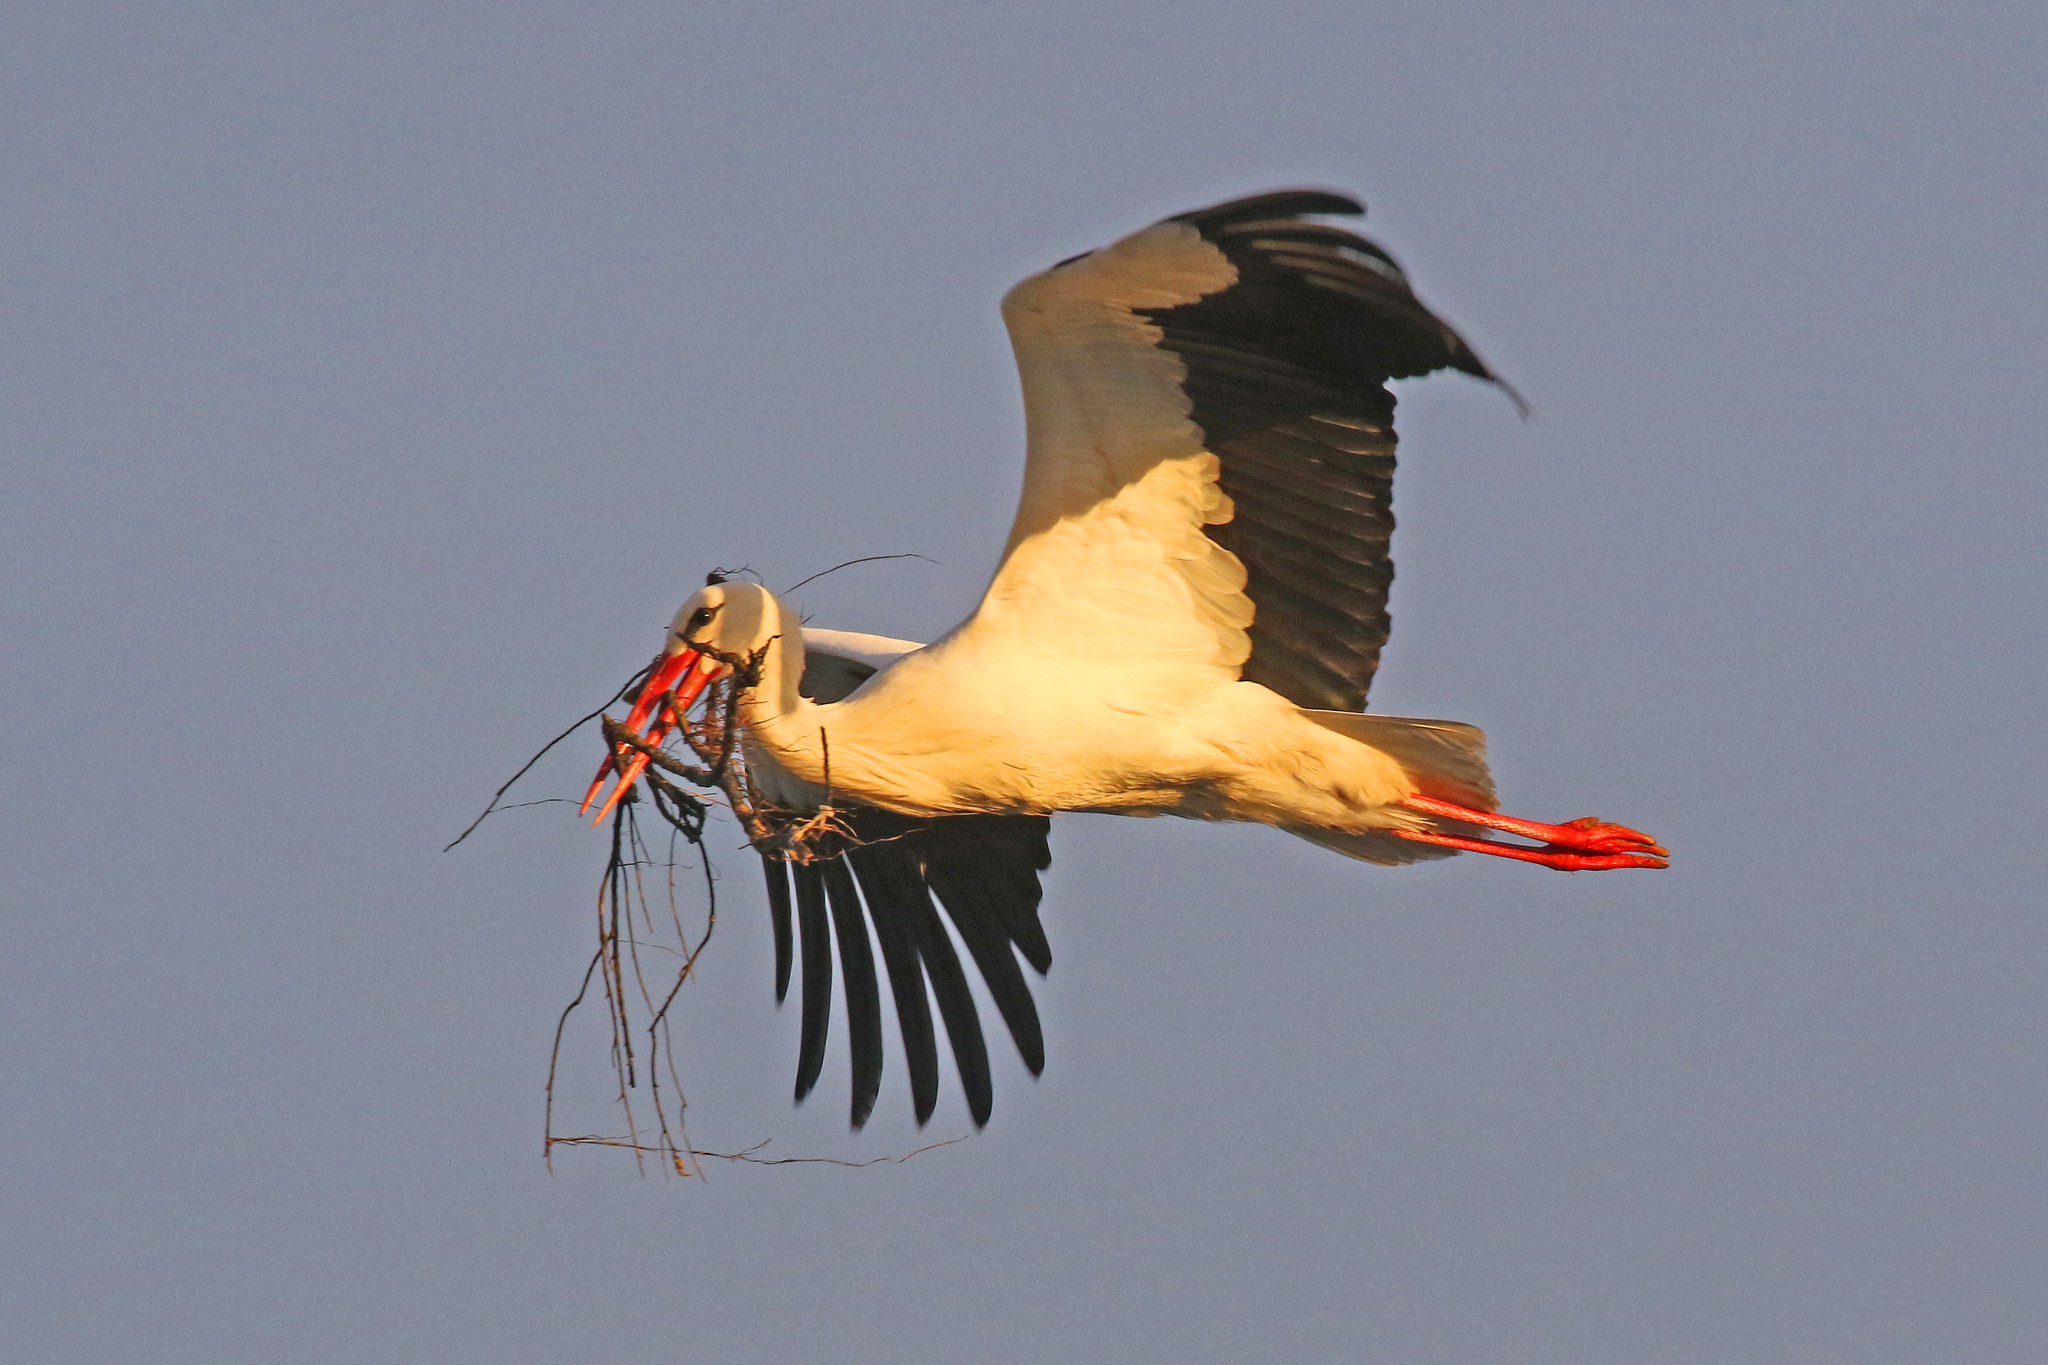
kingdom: Animalia
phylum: Chordata
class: Aves
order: Ciconiiformes
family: Ciconiidae
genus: Ciconia
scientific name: Ciconia ciconia
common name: White stork
